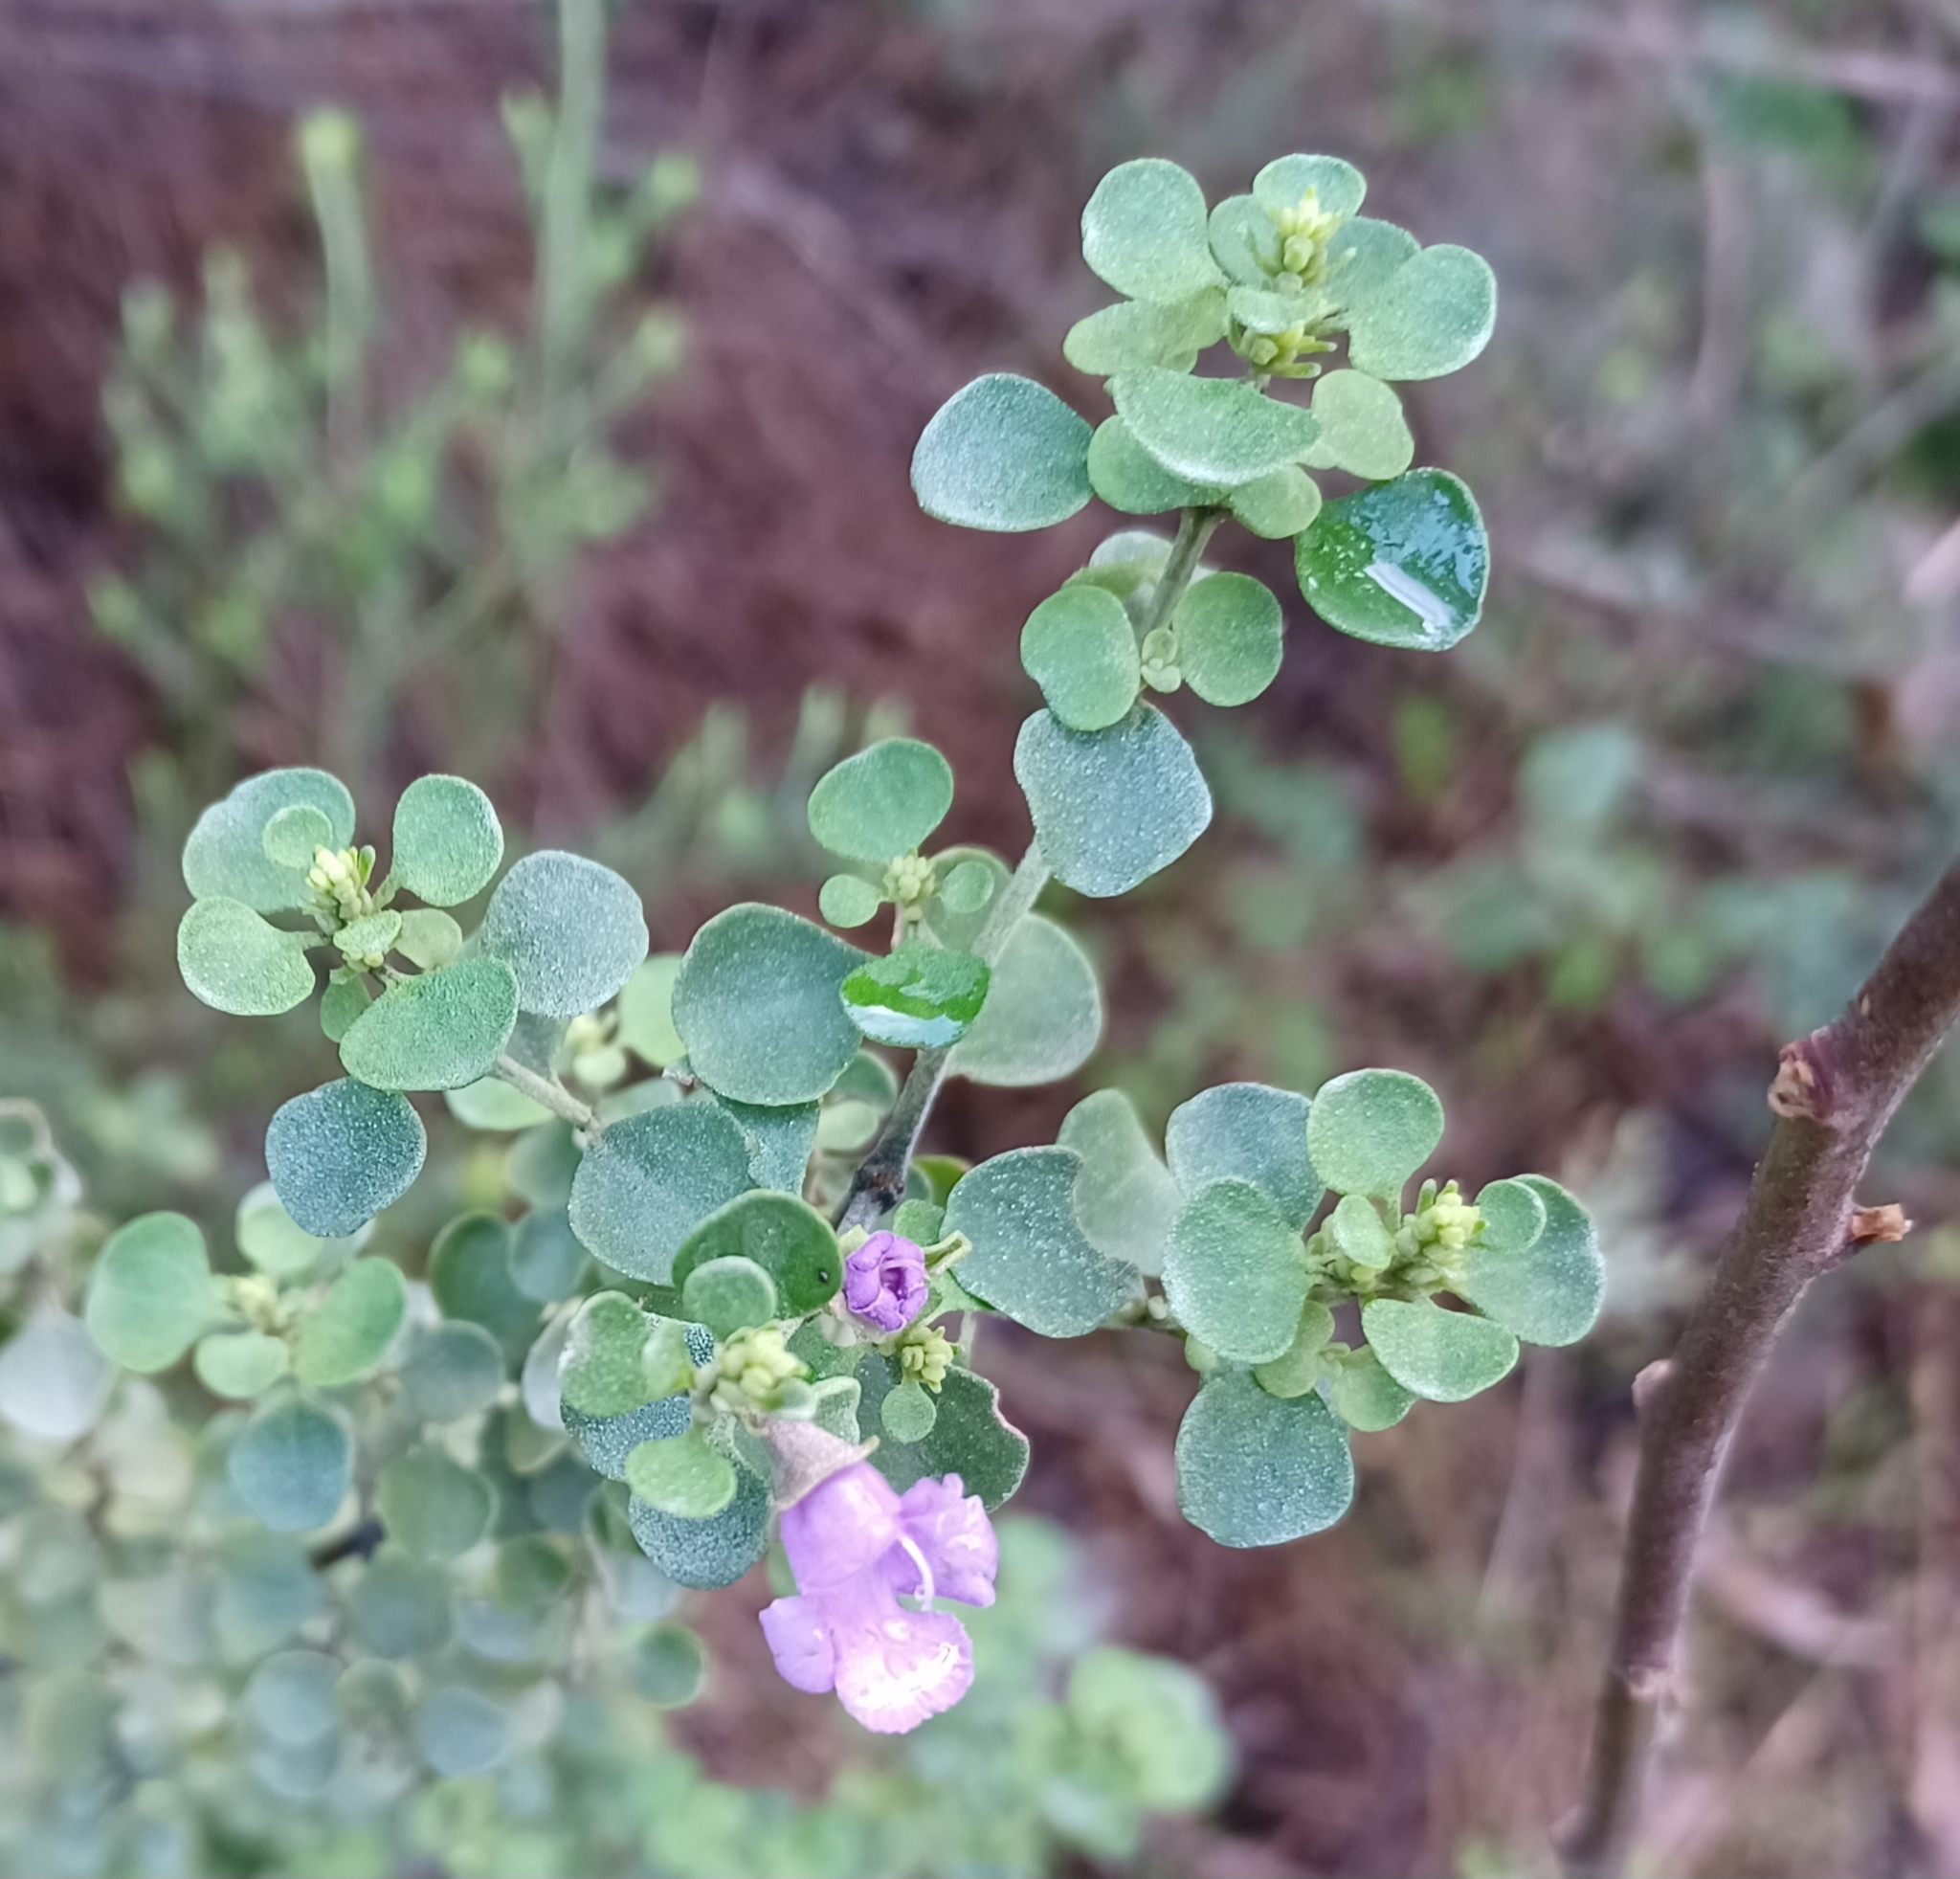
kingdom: Plantae
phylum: Tracheophyta
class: Magnoliopsida
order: Lamiales
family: Lamiaceae
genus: Prostanthera
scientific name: Prostanthera rotundifolia
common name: Round-leaf mintbush
